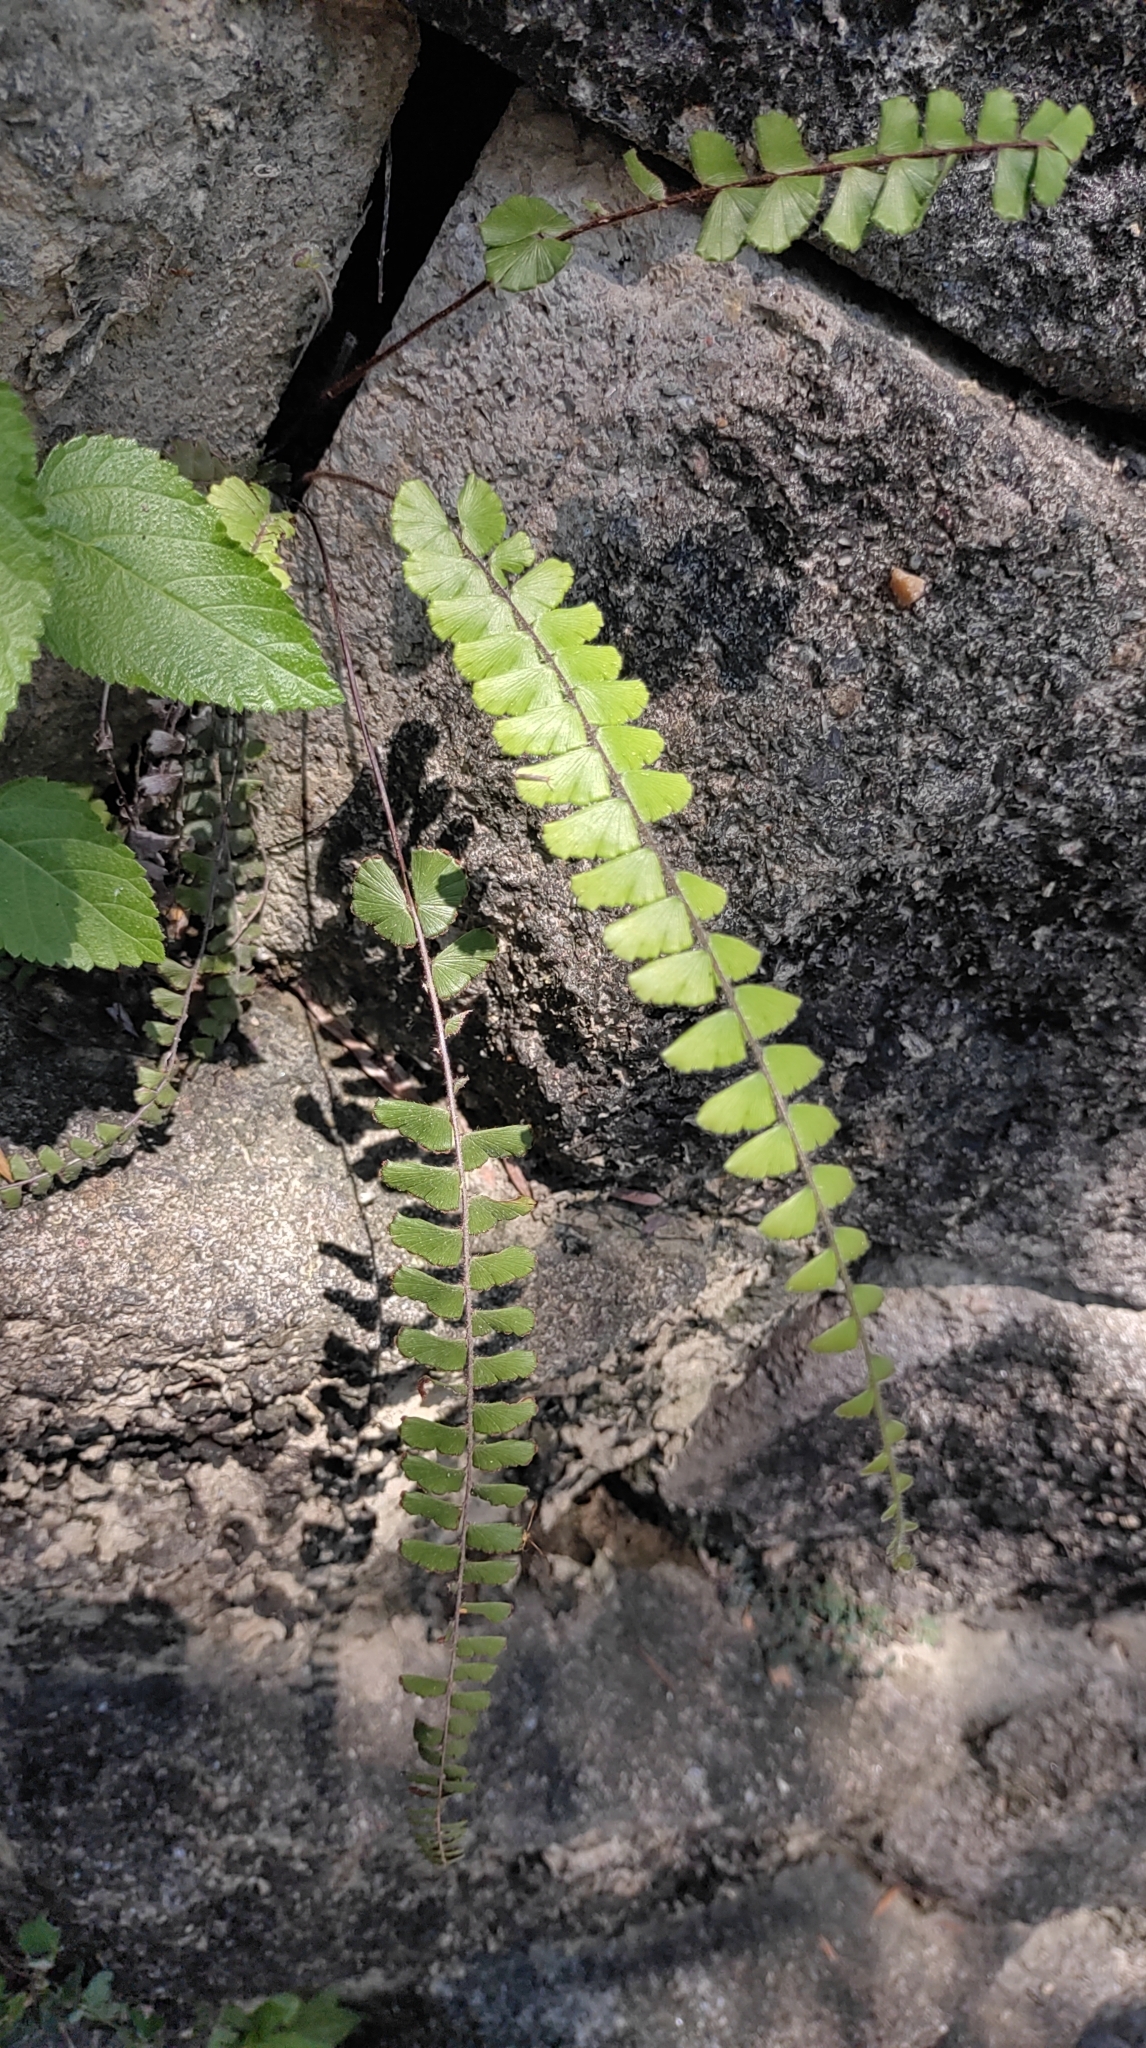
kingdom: Plantae
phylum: Tracheophyta
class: Polypodiopsida
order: Polypodiales
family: Pteridaceae
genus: Adiantum
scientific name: Adiantum ciliatum
